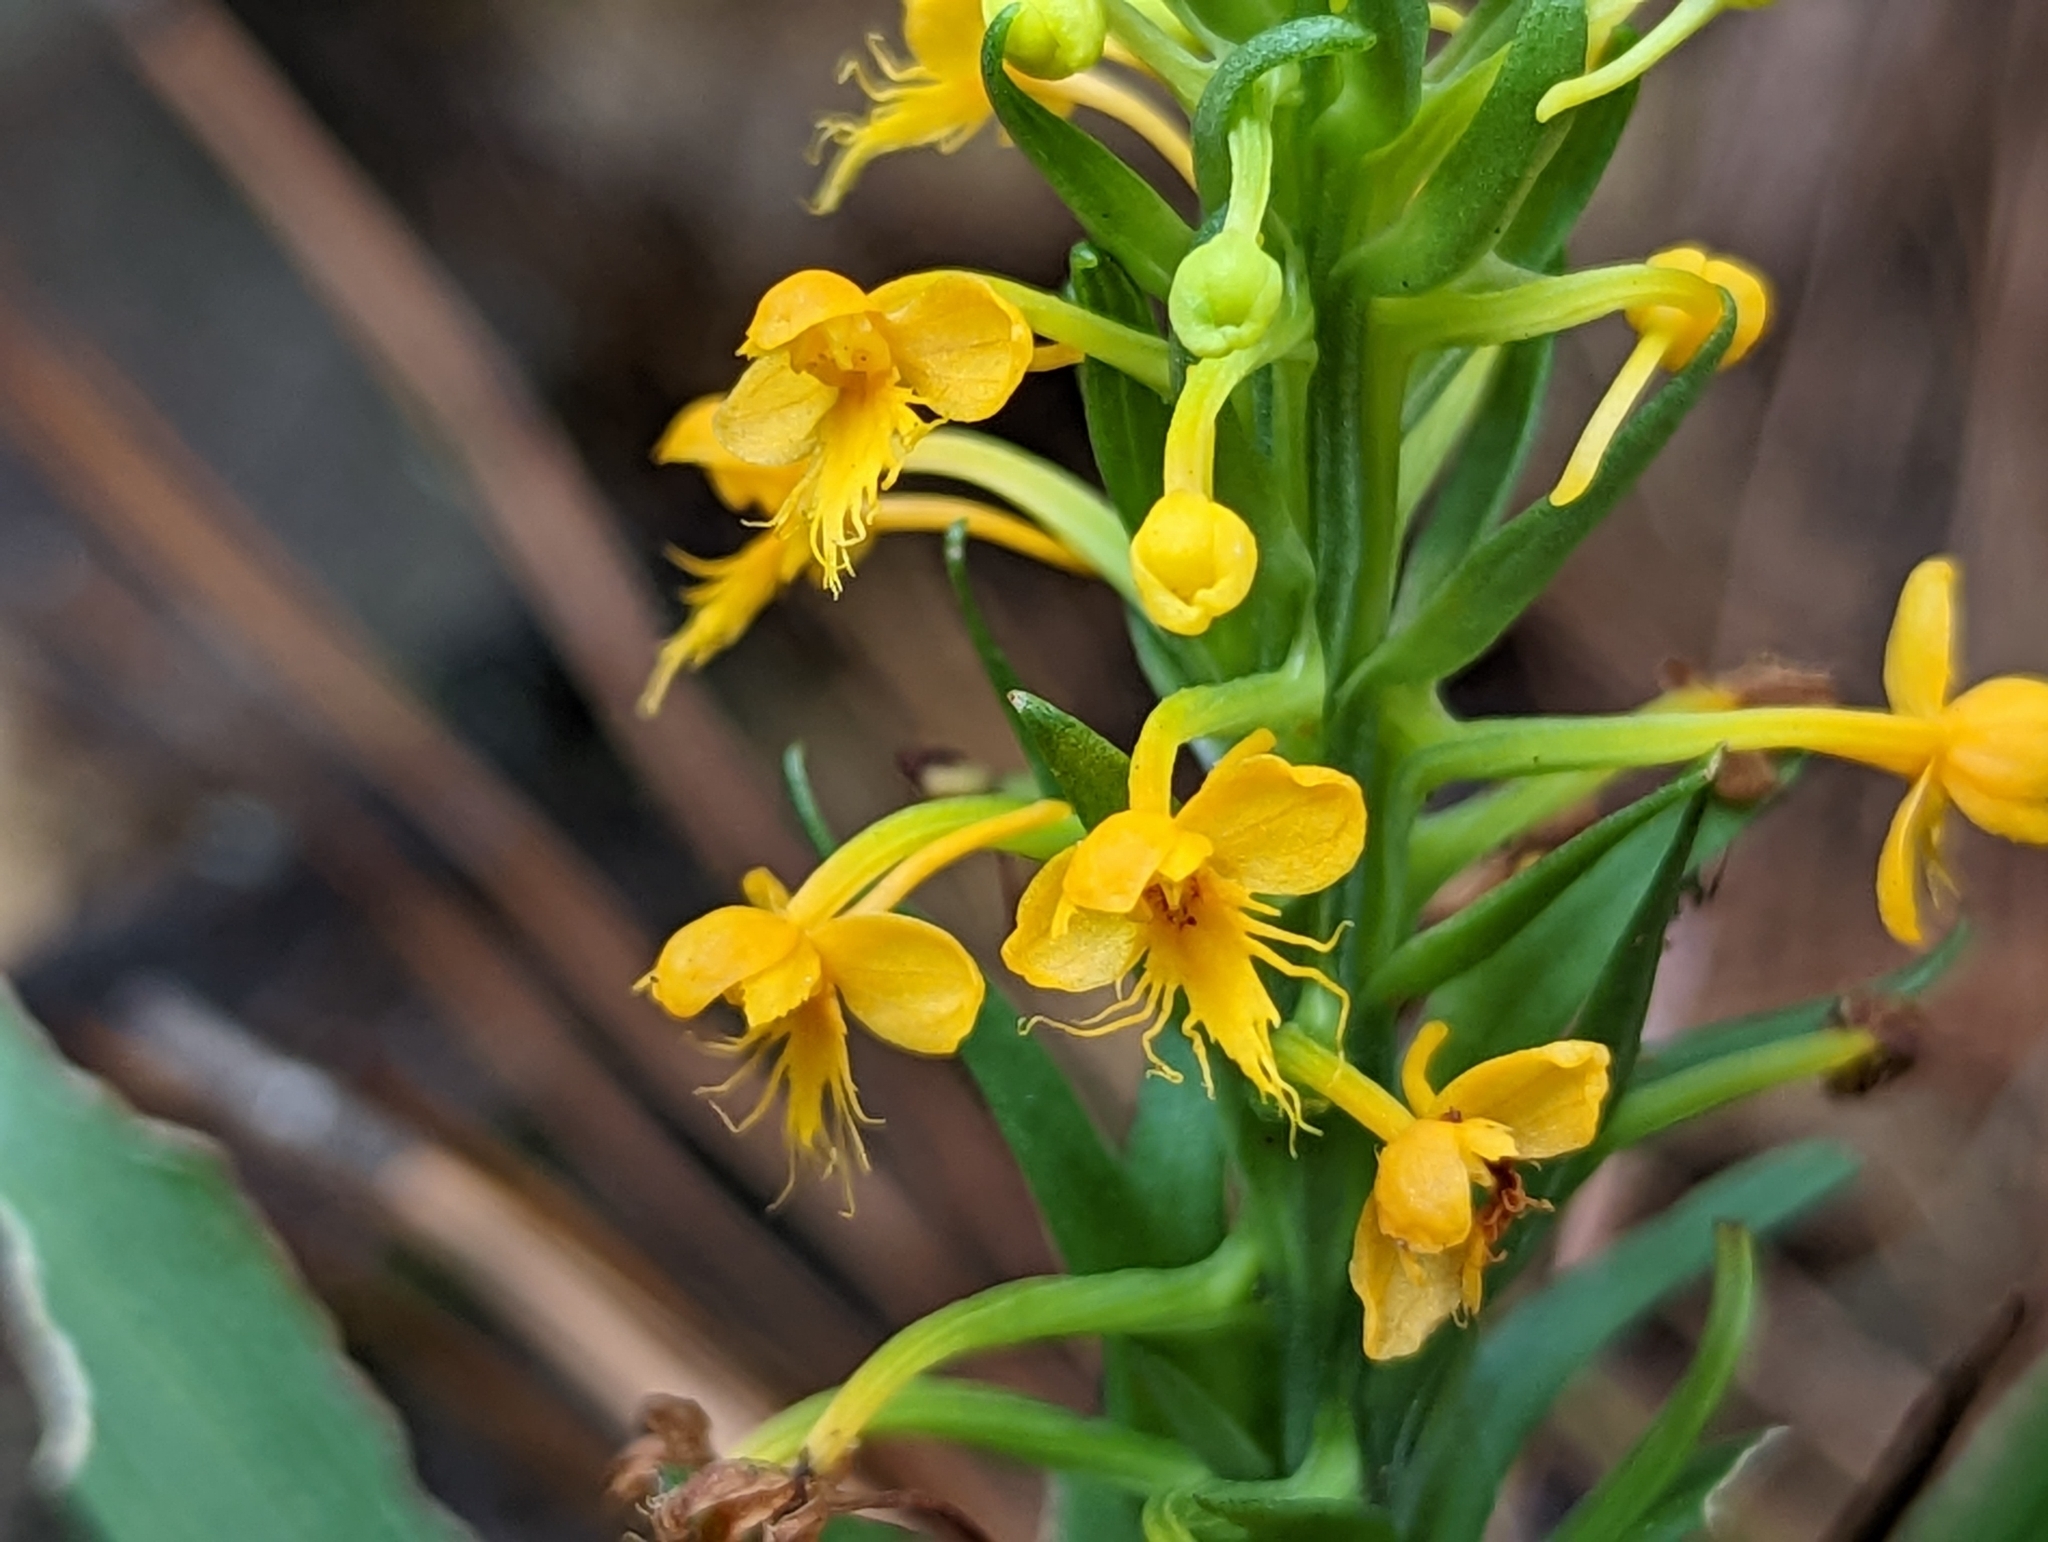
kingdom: Plantae
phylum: Tracheophyta
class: Liliopsida
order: Asparagales
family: Orchidaceae
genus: Platanthera
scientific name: Platanthera cristata
